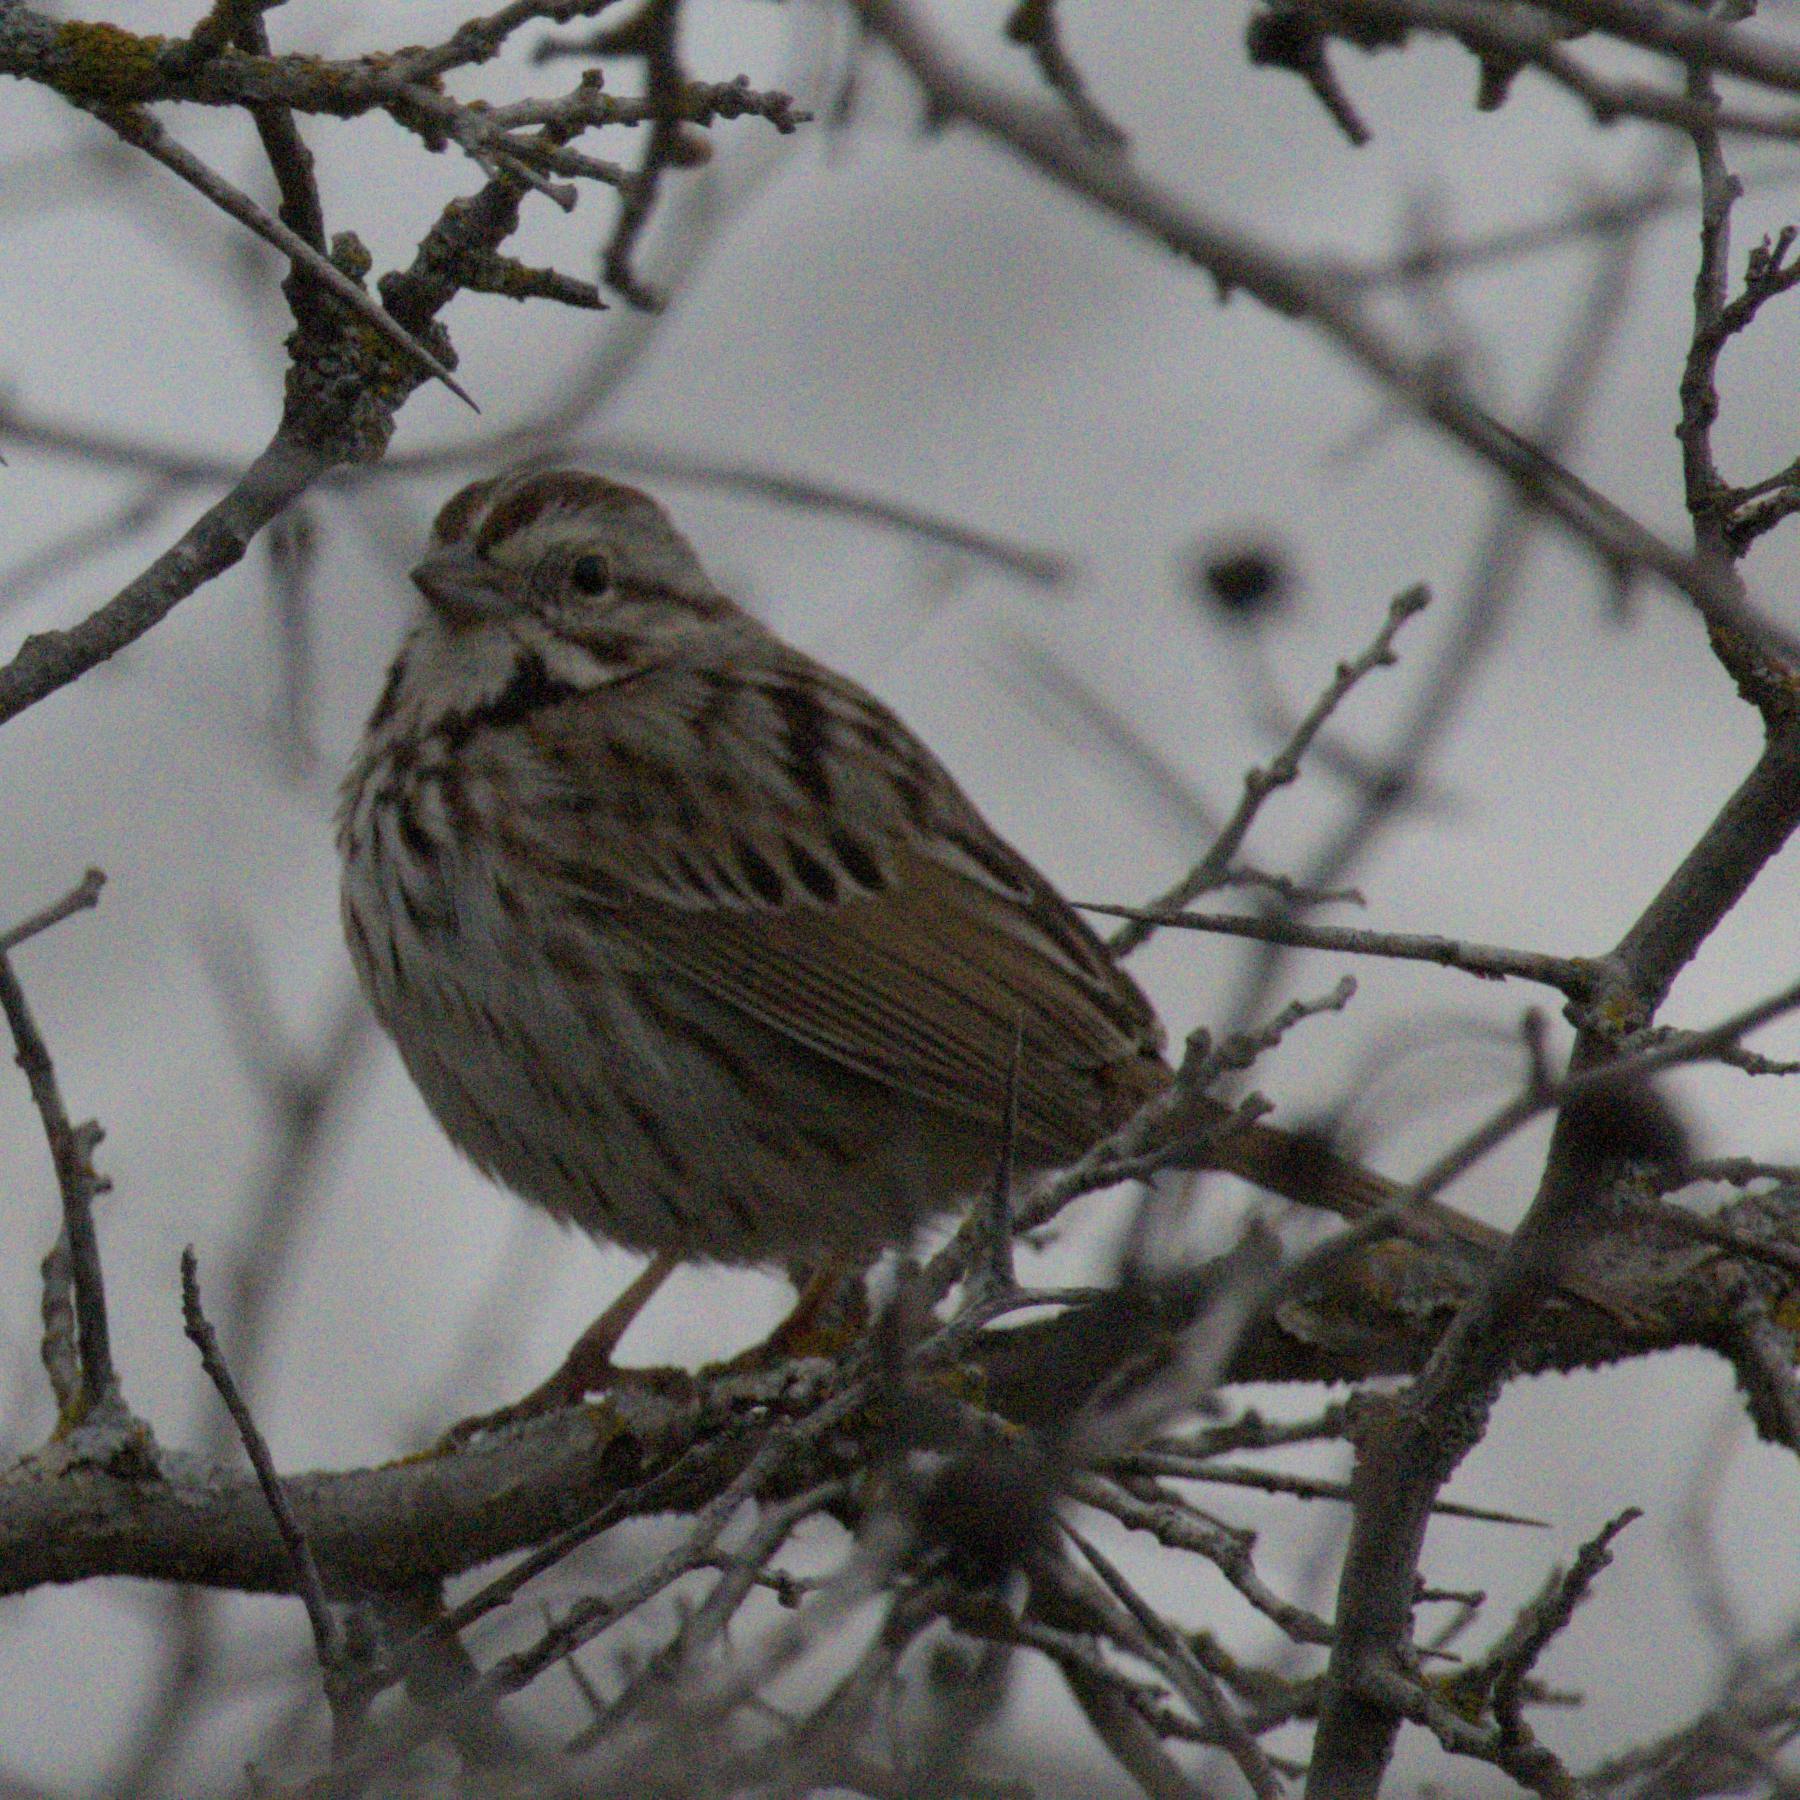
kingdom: Animalia
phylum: Chordata
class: Aves
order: Passeriformes
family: Passerellidae
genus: Melospiza
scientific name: Melospiza melodia
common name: Song sparrow
